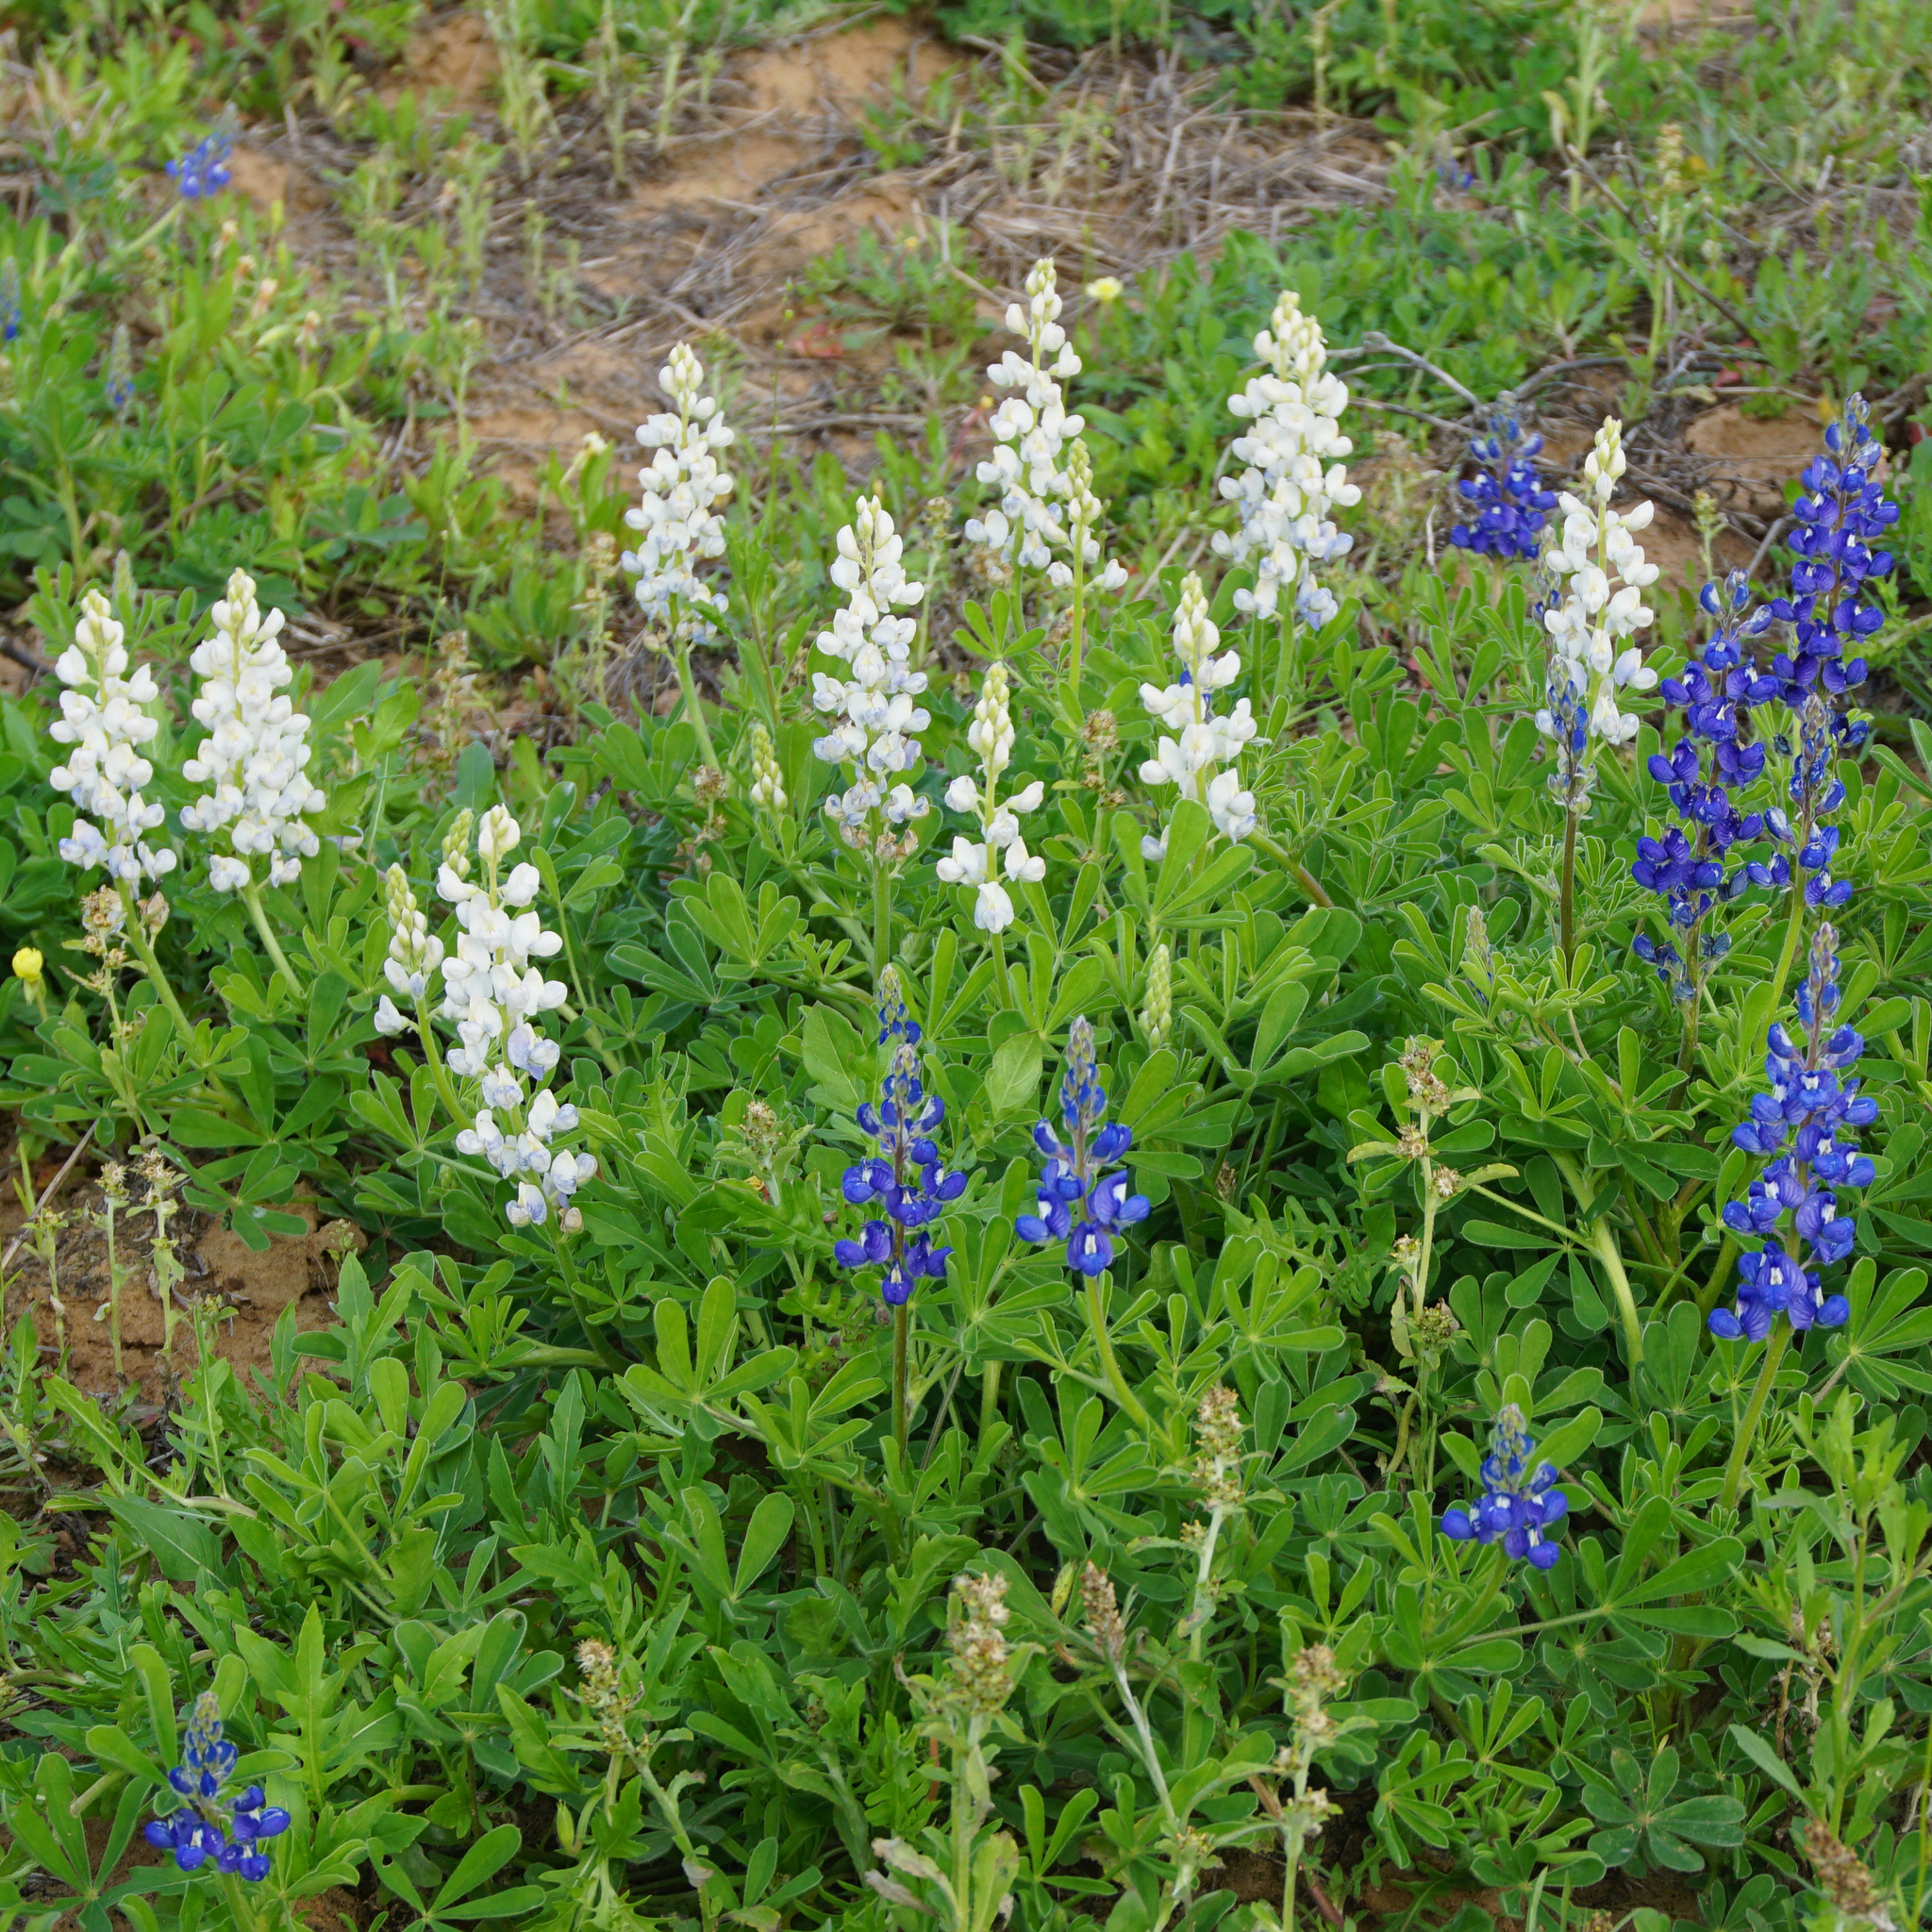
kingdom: Plantae
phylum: Tracheophyta
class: Magnoliopsida
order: Fabales
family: Fabaceae
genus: Lupinus
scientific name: Lupinus subcarnosus
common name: Texas bluebonnet
